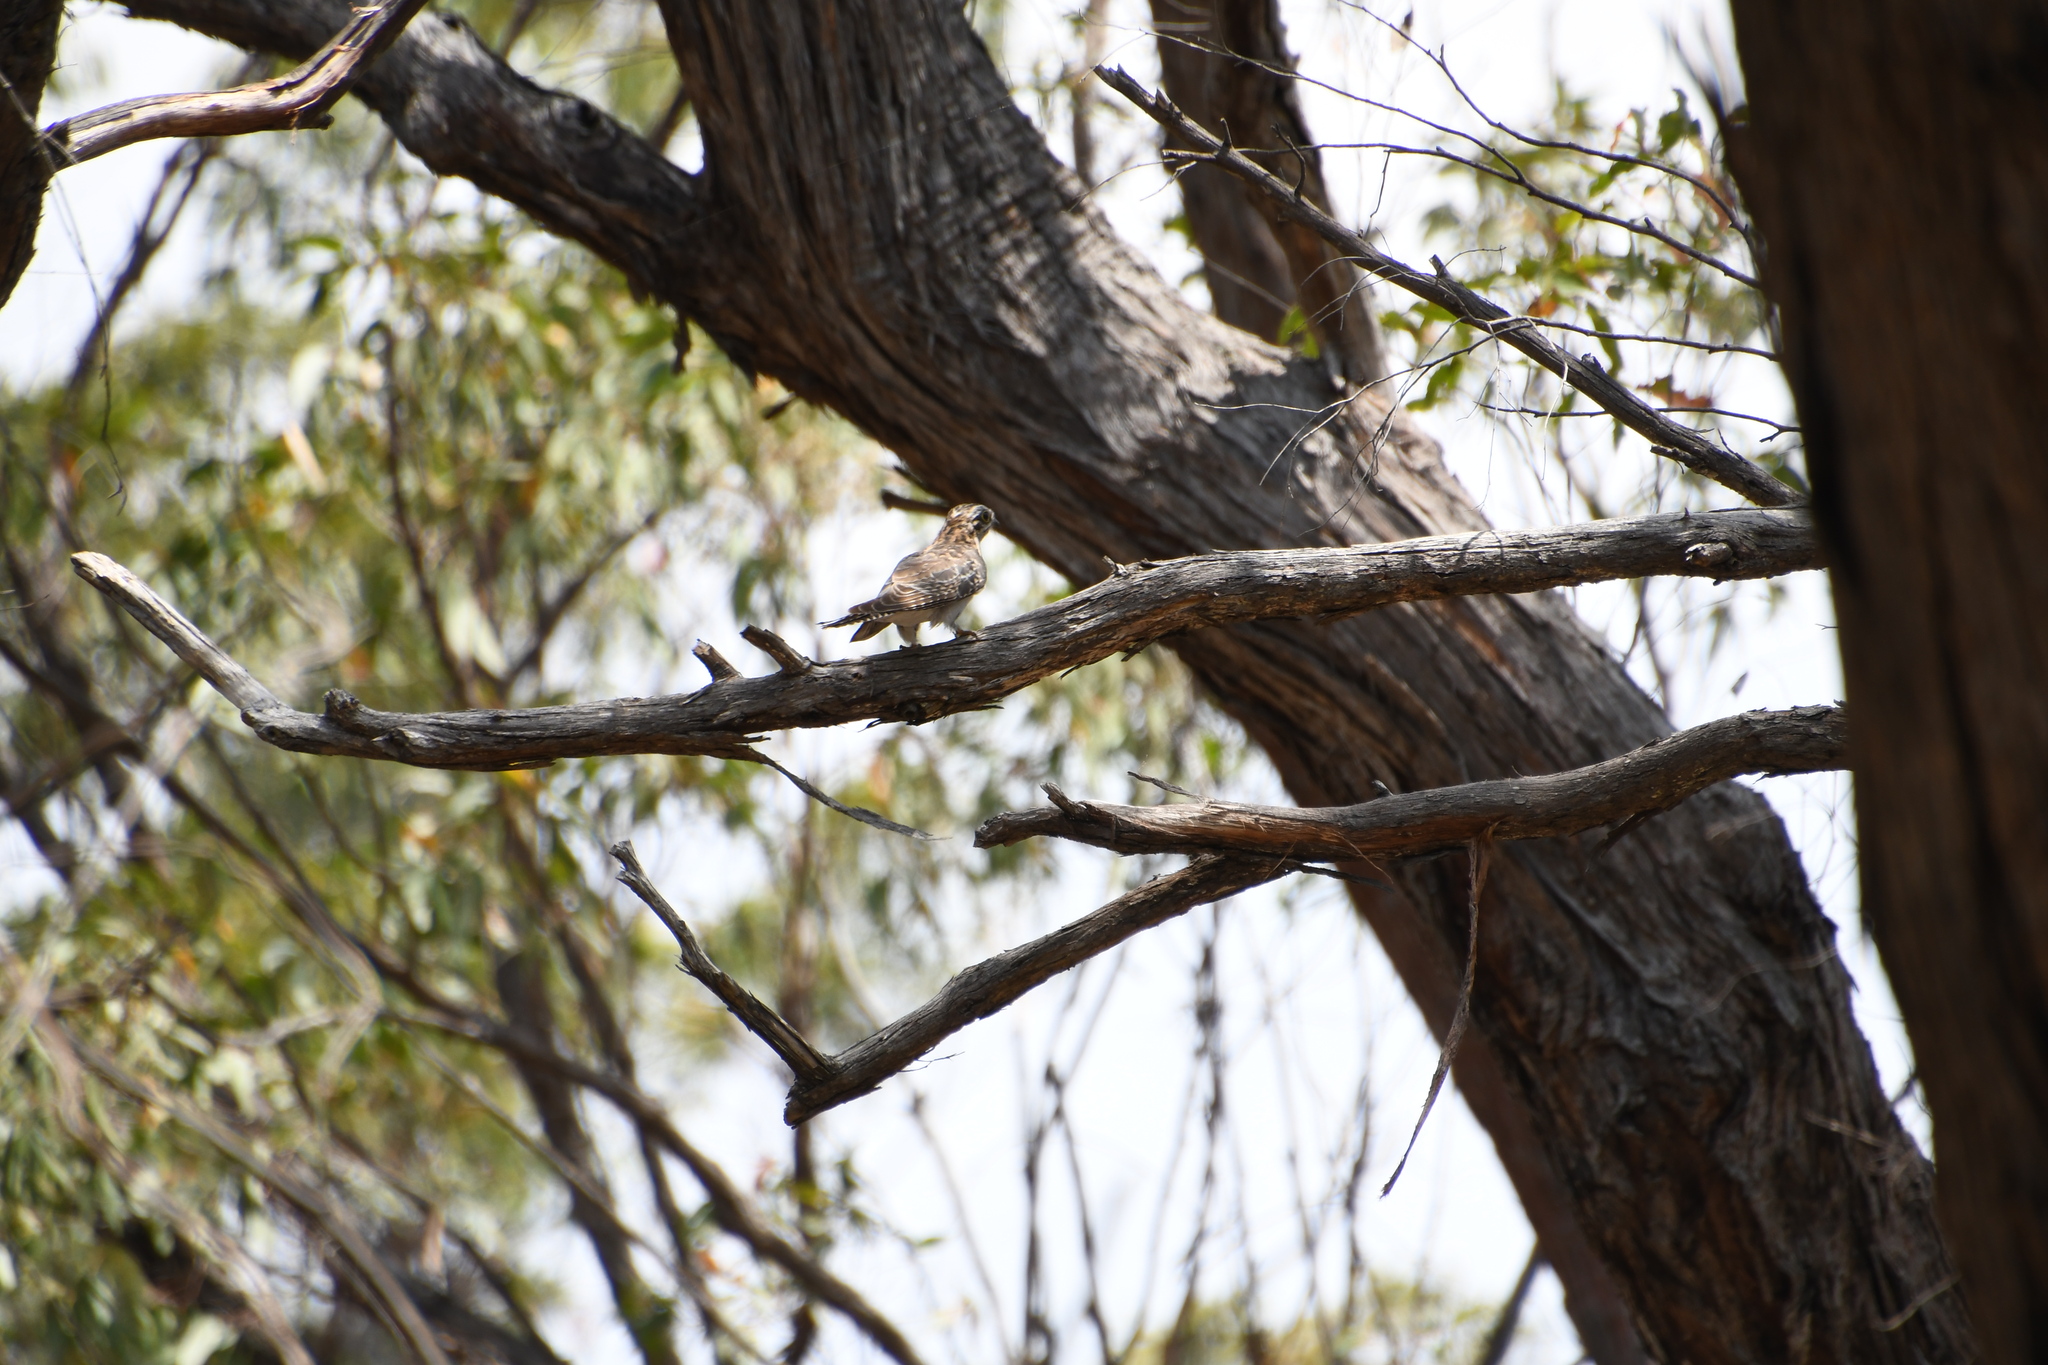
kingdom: Animalia
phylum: Chordata
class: Aves
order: Cuculiformes
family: Cuculidae
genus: Cuculus
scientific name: Cuculus pallidus
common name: Pallid cuckoo
